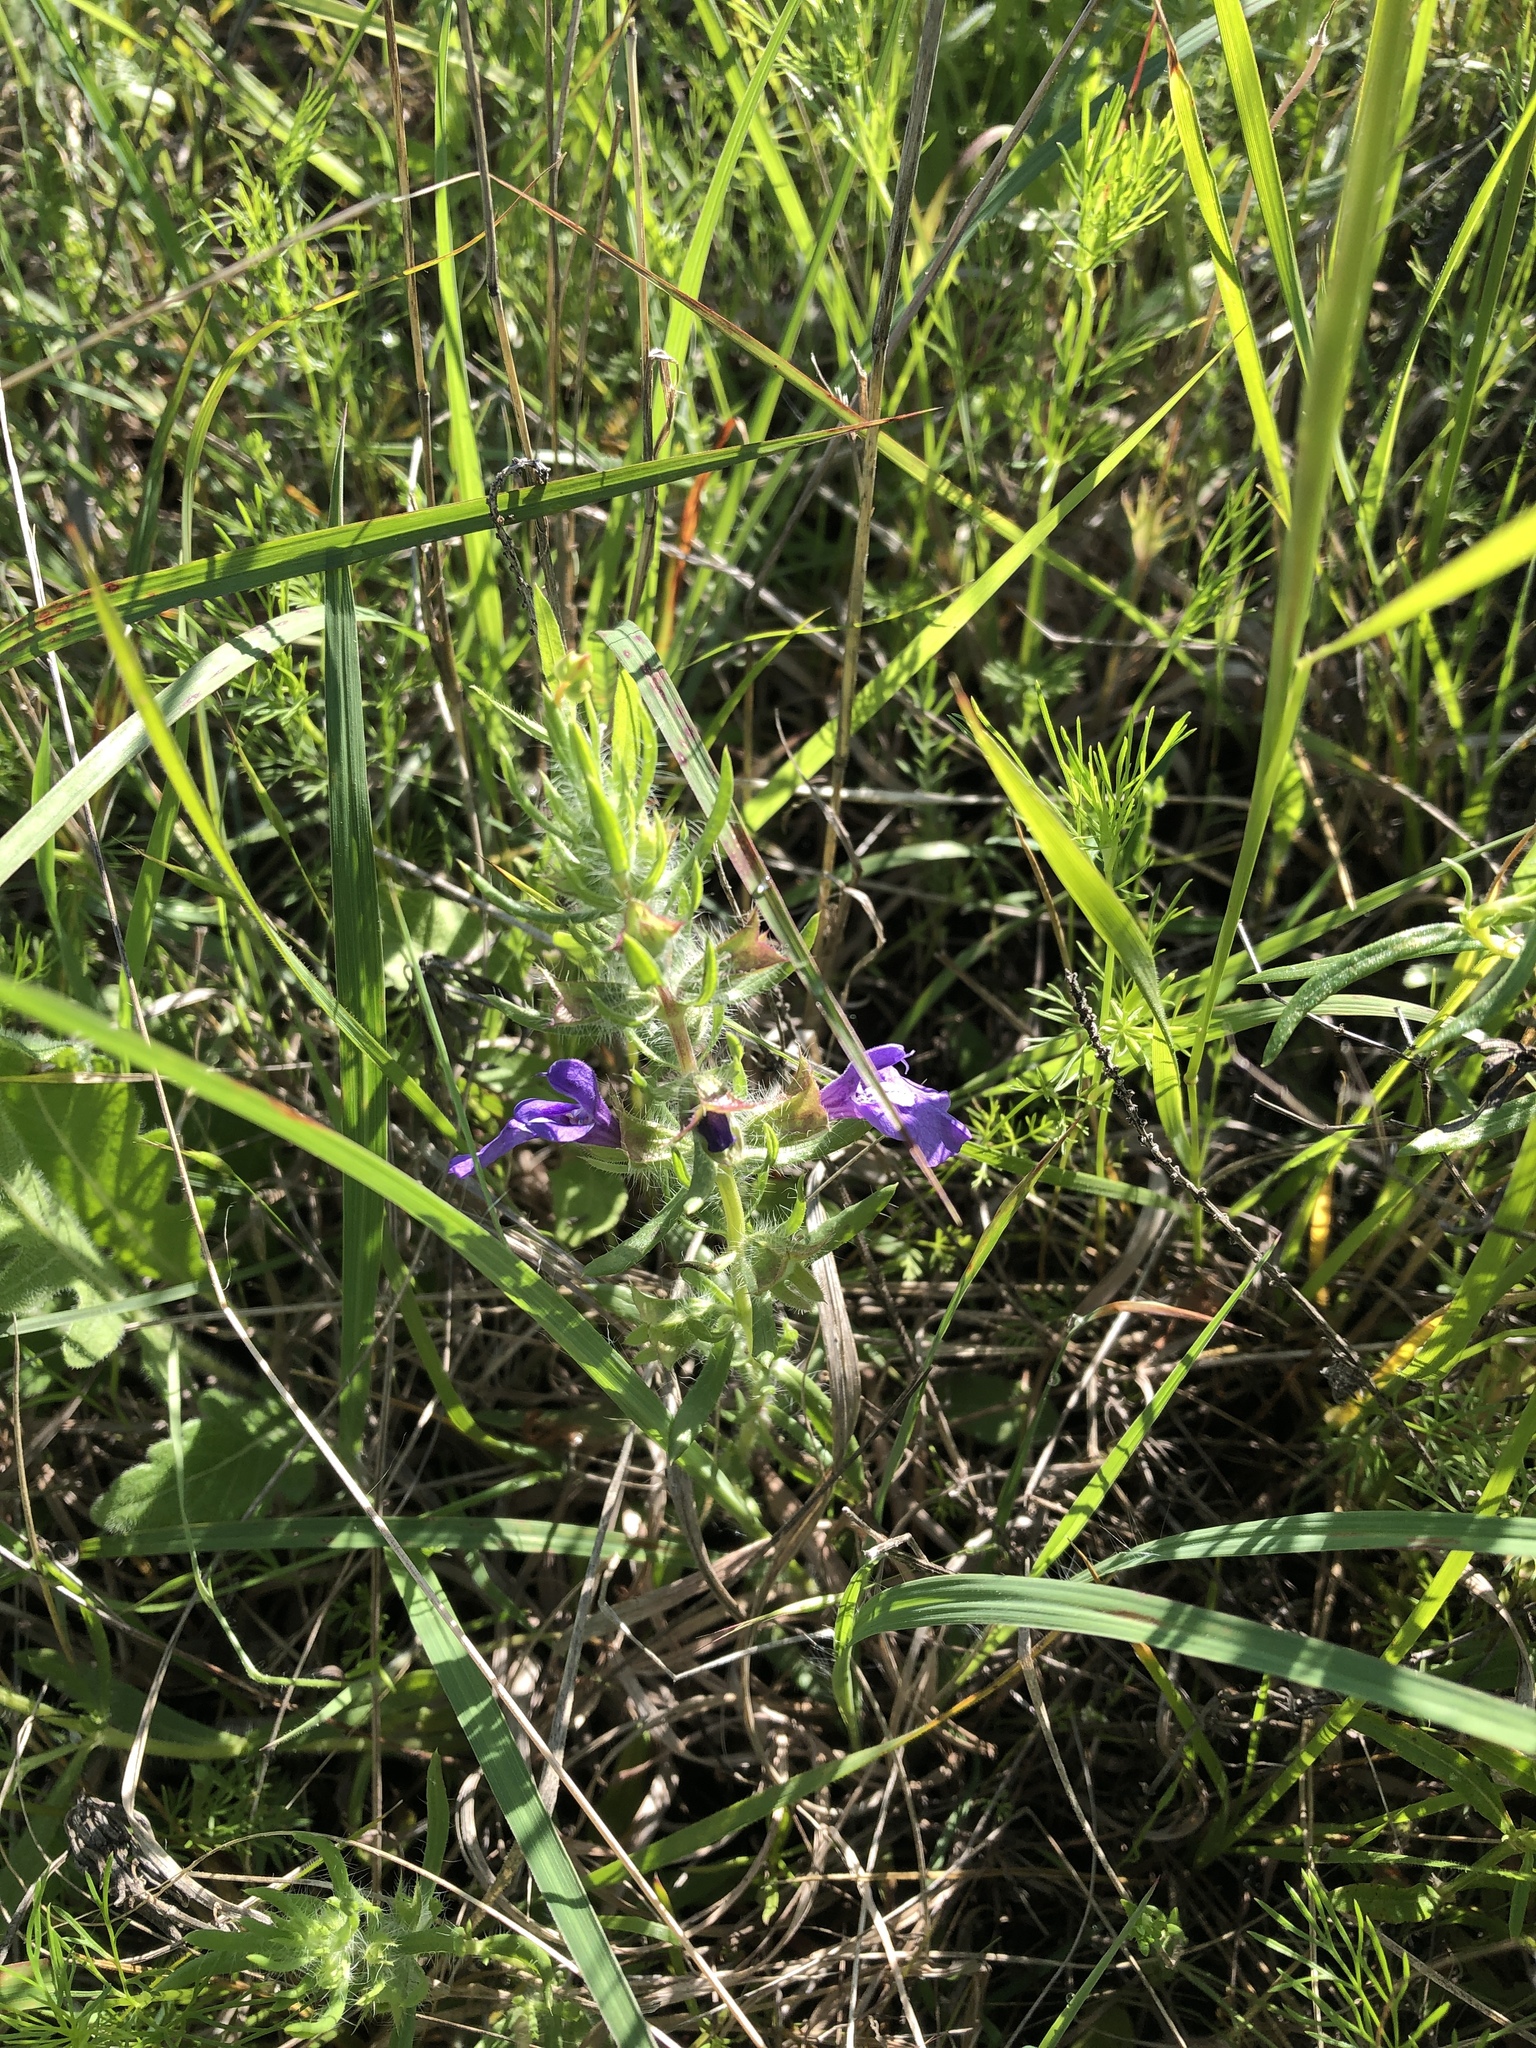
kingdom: Plantae
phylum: Tracheophyta
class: Magnoliopsida
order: Lamiales
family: Lamiaceae
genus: Salvia
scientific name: Salvia texana
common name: Texas sage
